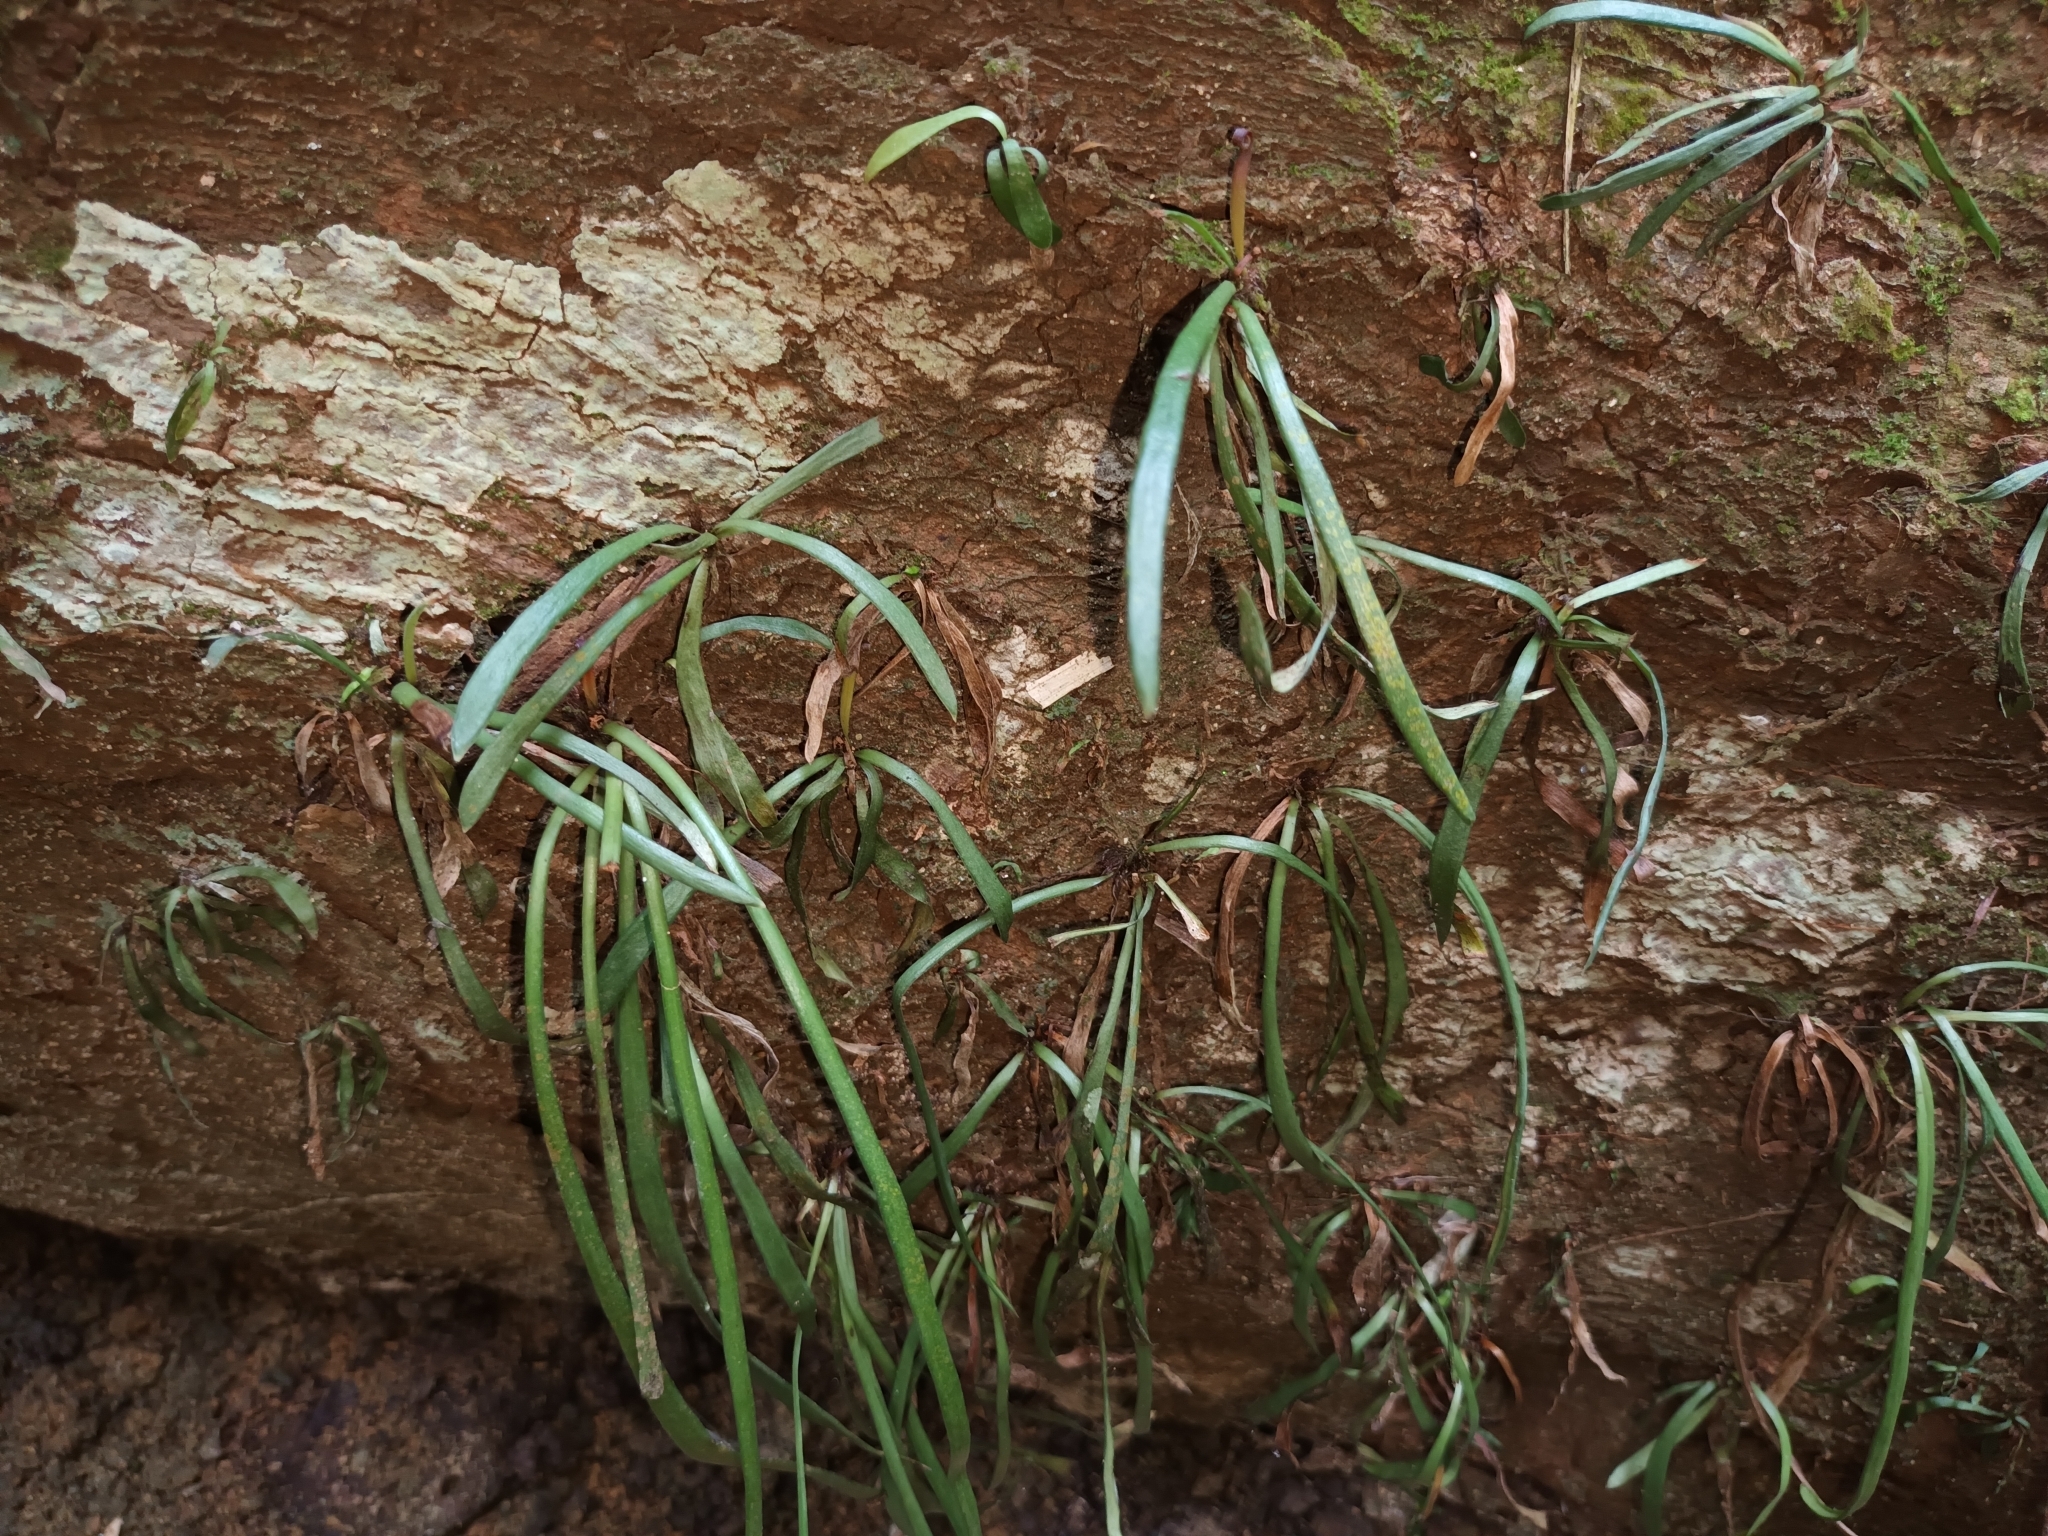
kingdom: Plantae
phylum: Tracheophyta
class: Polypodiopsida
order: Polypodiales
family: Pteridaceae
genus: Haplopteris
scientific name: Haplopteris ensiformis
